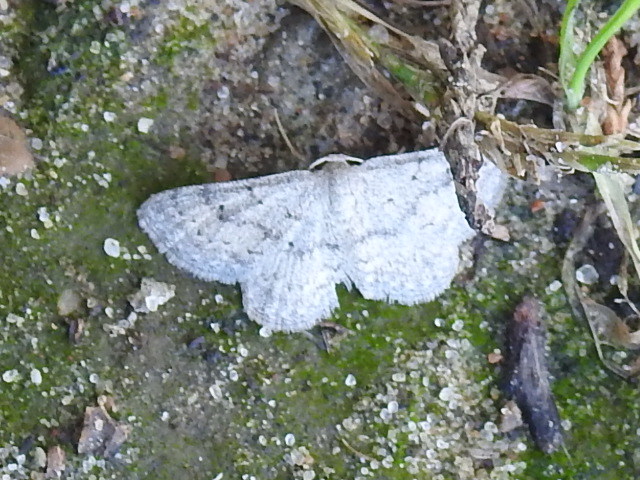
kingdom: Animalia
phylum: Arthropoda
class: Insecta
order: Lepidoptera
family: Geometridae
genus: Lobocleta
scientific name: Lobocleta ossularia
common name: Drab brown wave
